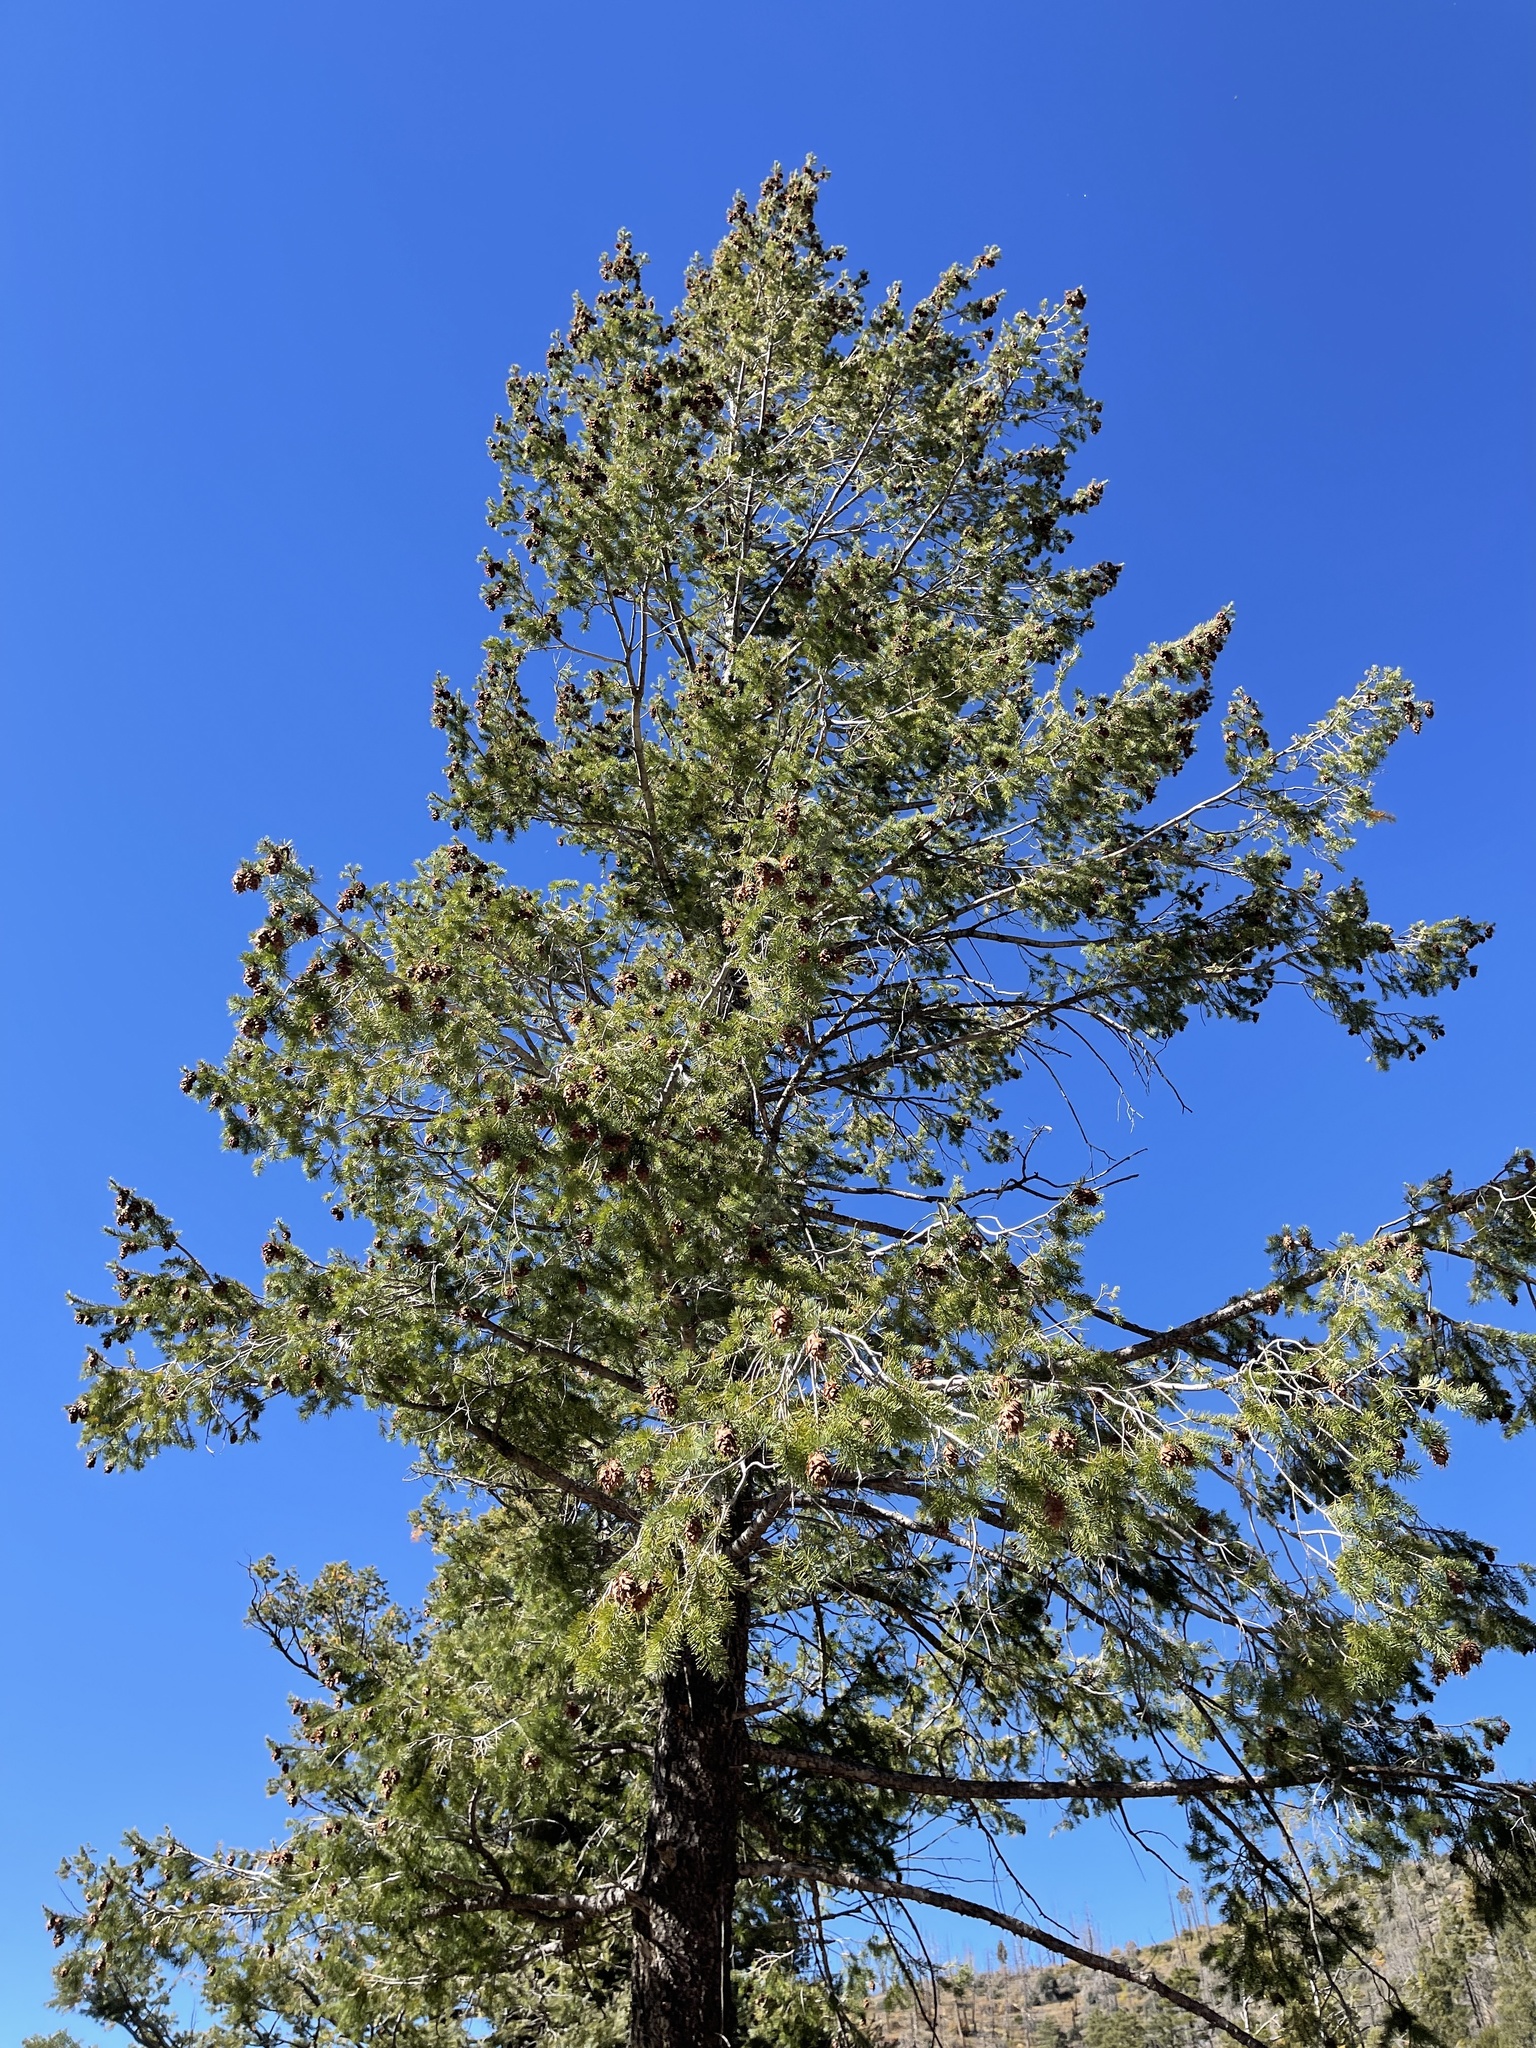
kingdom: Plantae
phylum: Tracheophyta
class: Pinopsida
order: Pinales
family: Pinaceae
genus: Pseudotsuga
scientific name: Pseudotsuga menziesii
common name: Douglas fir
